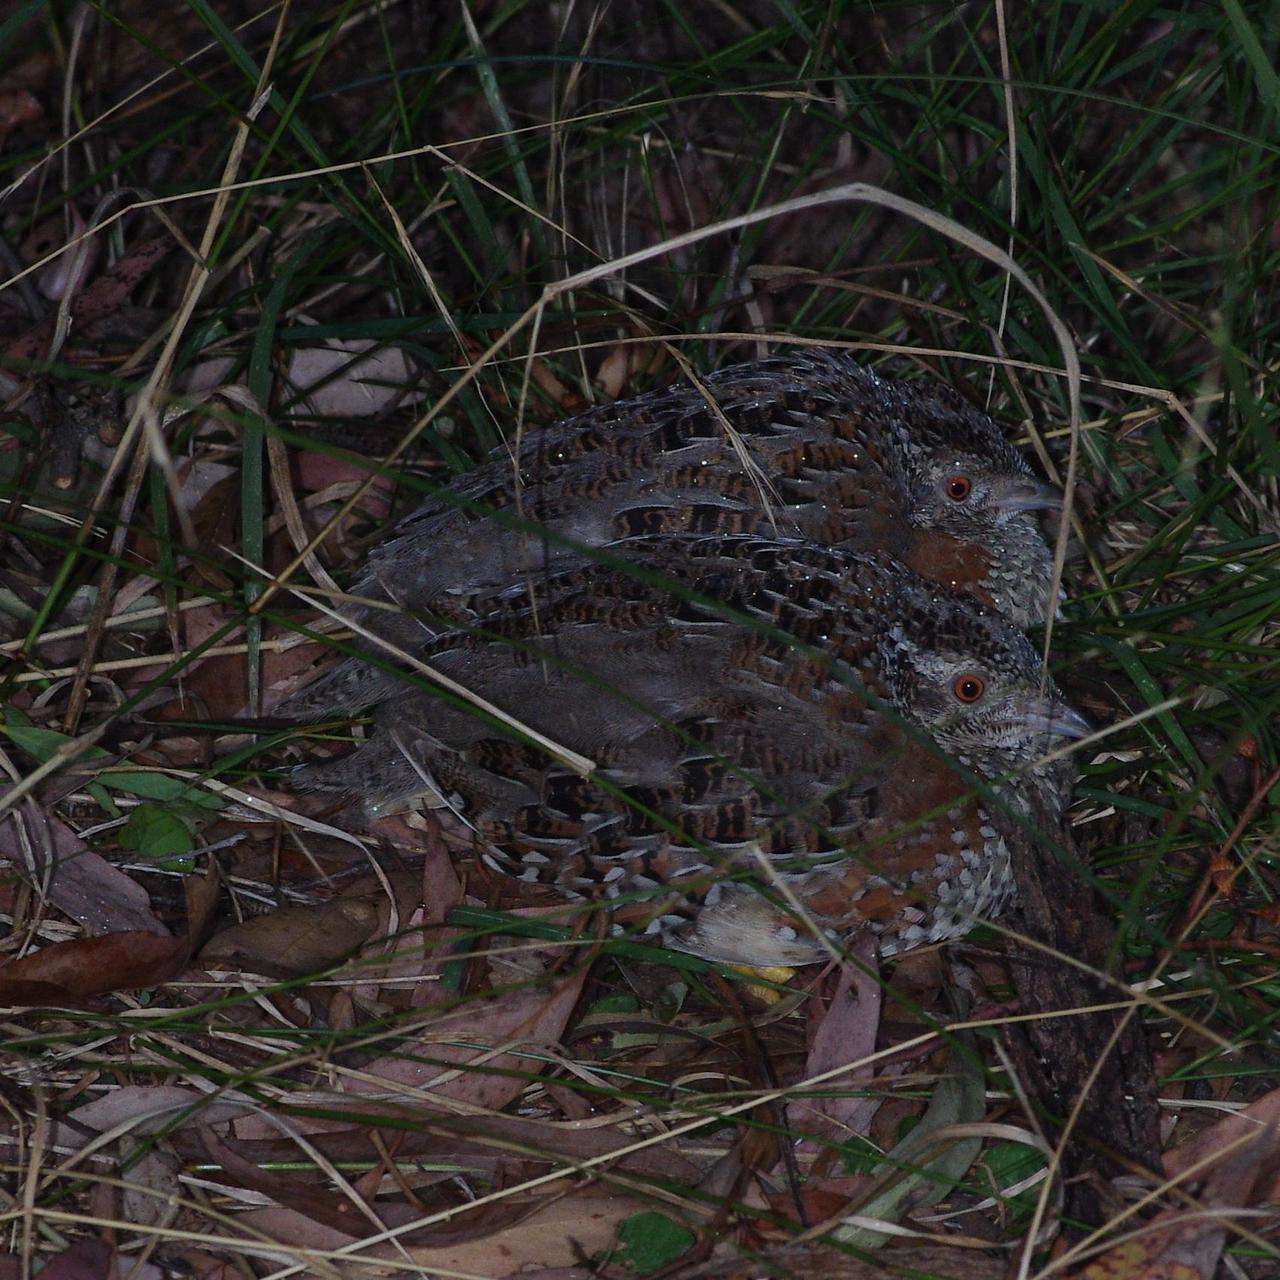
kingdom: Animalia
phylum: Chordata
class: Aves
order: Charadriiformes
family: Turnicidae
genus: Turnix
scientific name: Turnix varius
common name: Painted buttonquail
